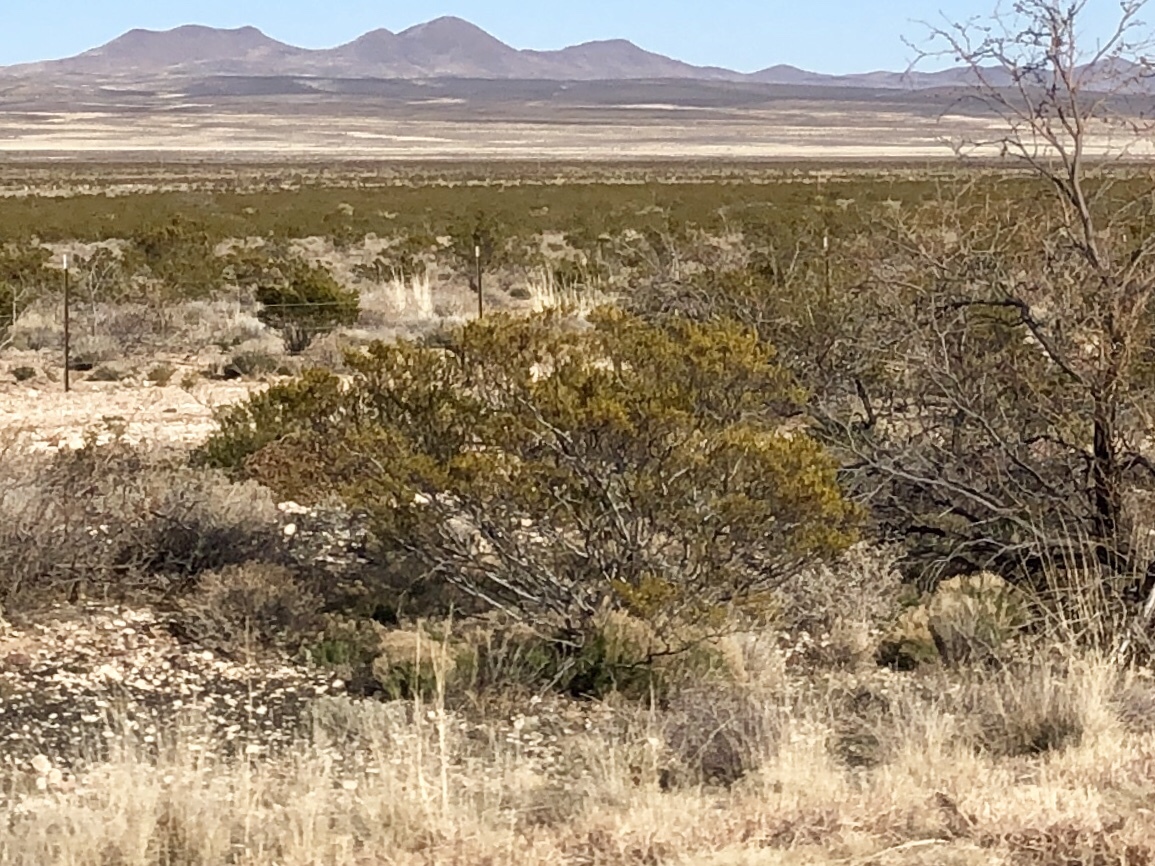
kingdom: Plantae
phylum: Tracheophyta
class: Magnoliopsida
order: Zygophyllales
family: Zygophyllaceae
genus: Larrea
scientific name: Larrea tridentata
